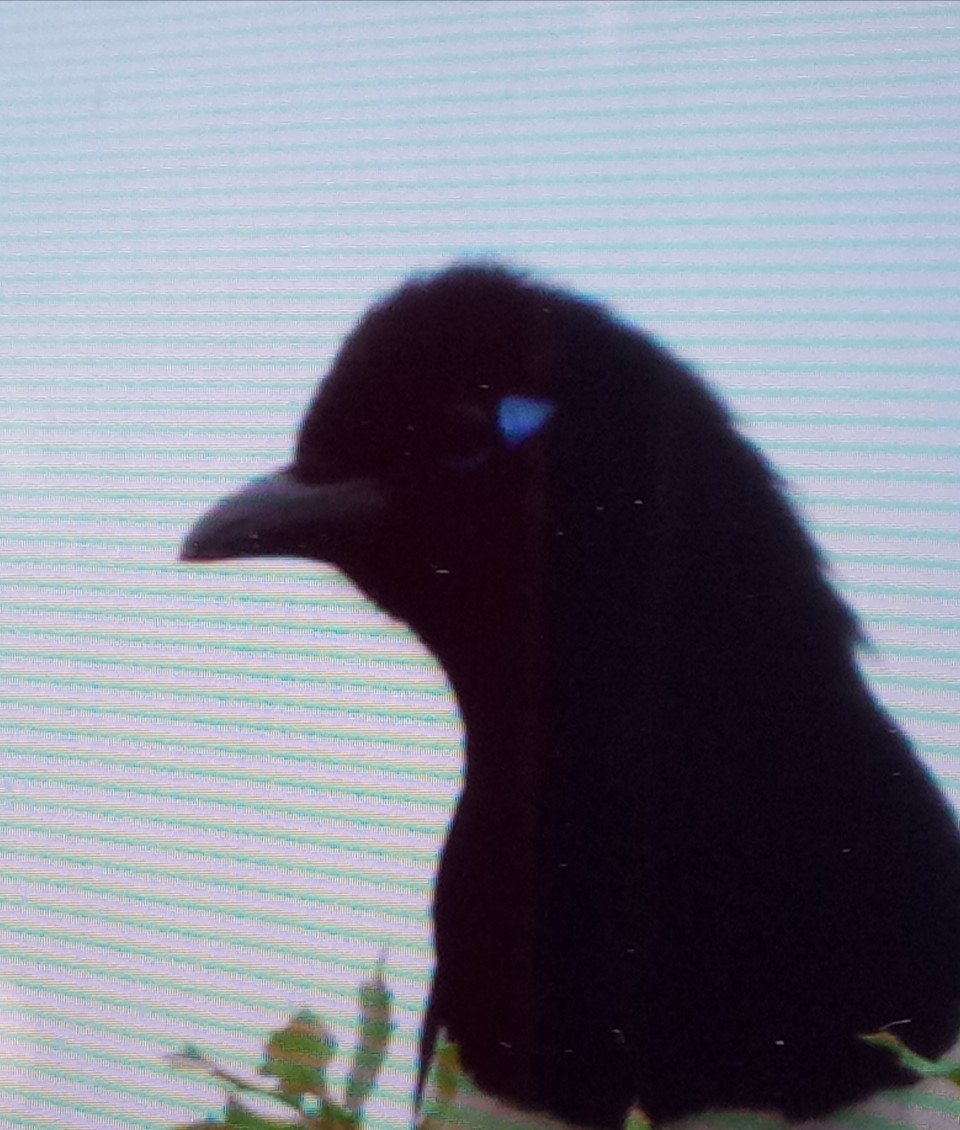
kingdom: Animalia
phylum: Chordata
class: Aves
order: Passeriformes
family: Corvidae
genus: Pica
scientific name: Pica mauritanica
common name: Maghreb magpie
